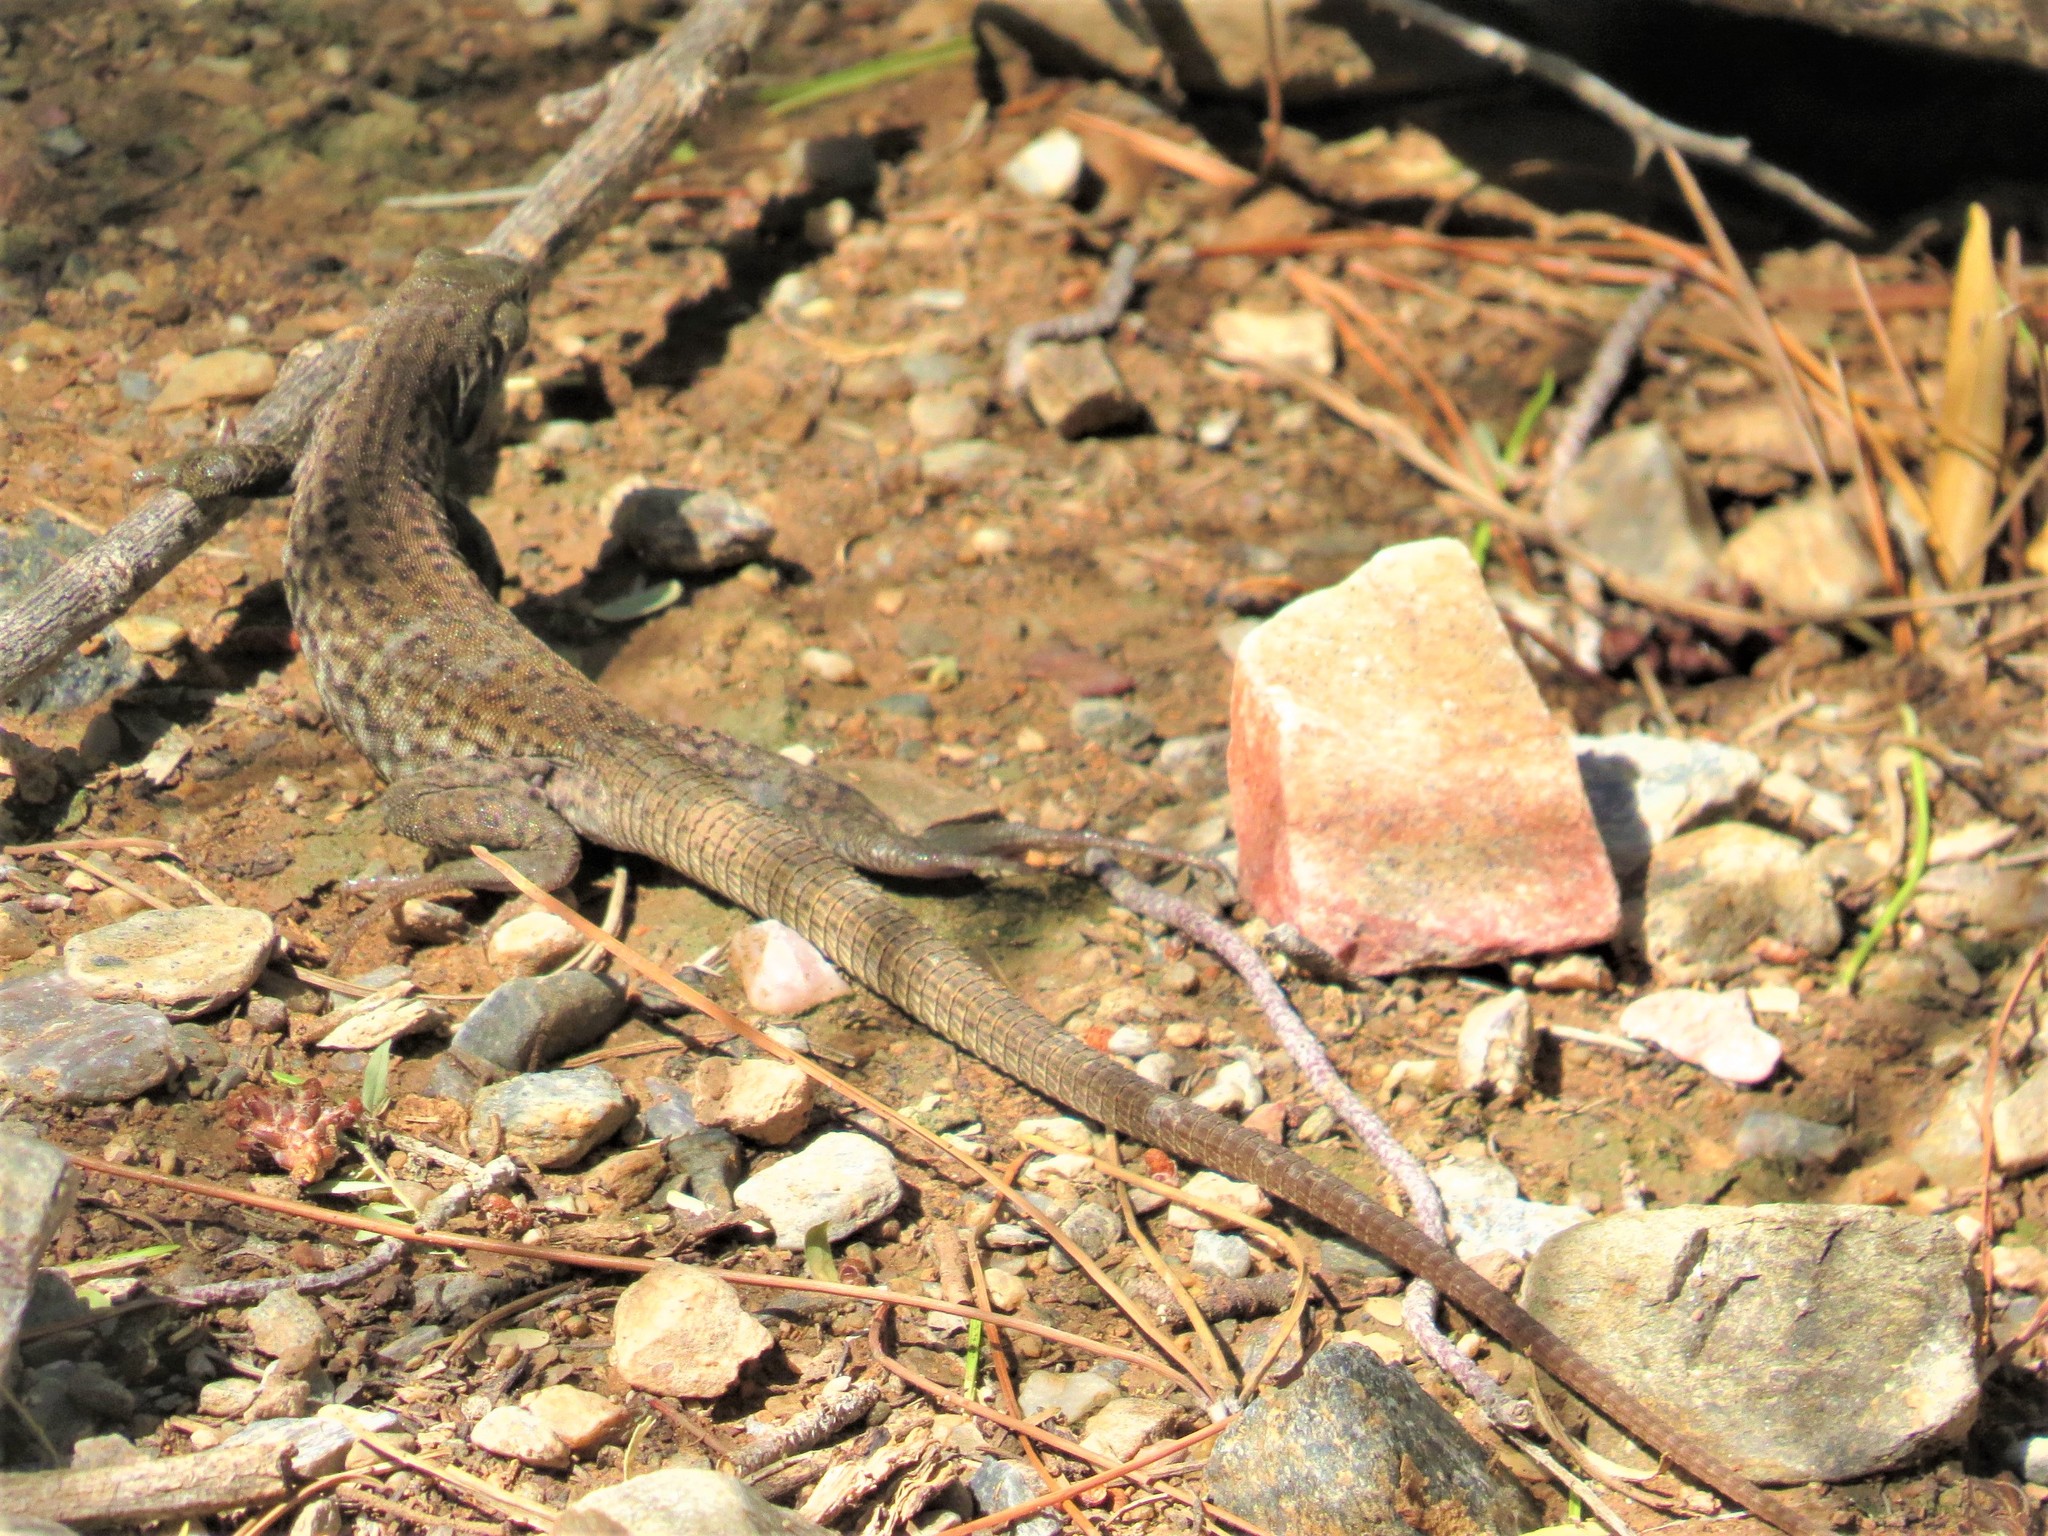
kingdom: Animalia
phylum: Chordata
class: Squamata
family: Teiidae
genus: Aspidoscelis
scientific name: Aspidoscelis tigris
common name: Tiger whiptail
